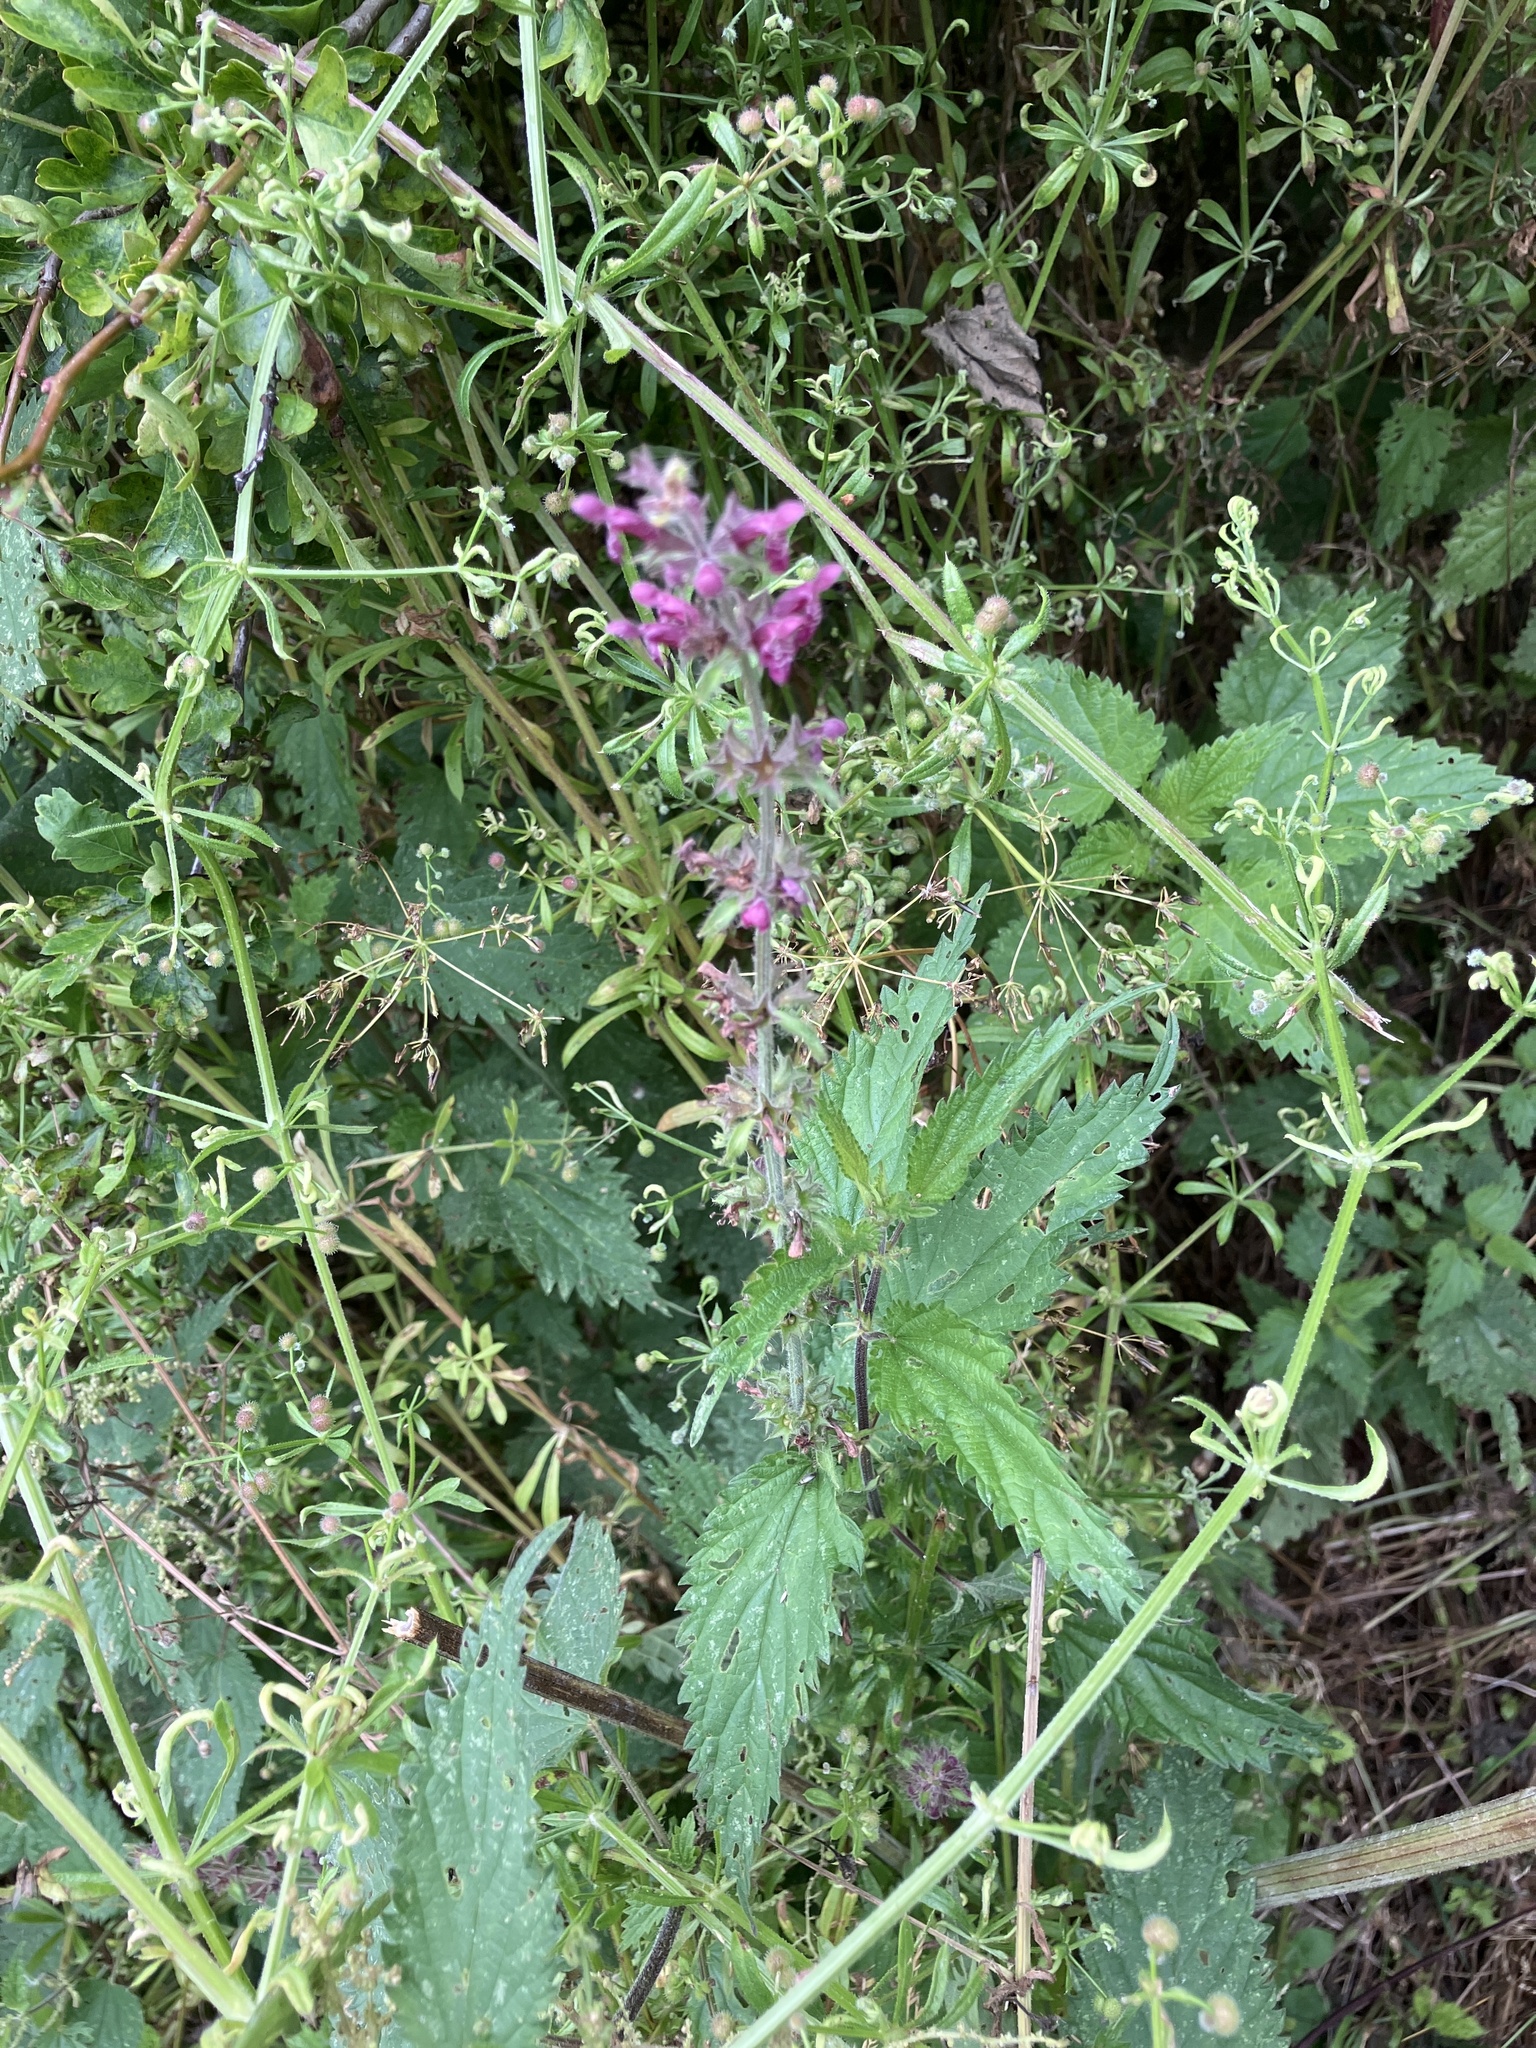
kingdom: Plantae
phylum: Tracheophyta
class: Magnoliopsida
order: Lamiales
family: Lamiaceae
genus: Stachys
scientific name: Stachys sylvatica
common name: Hedge woundwort
